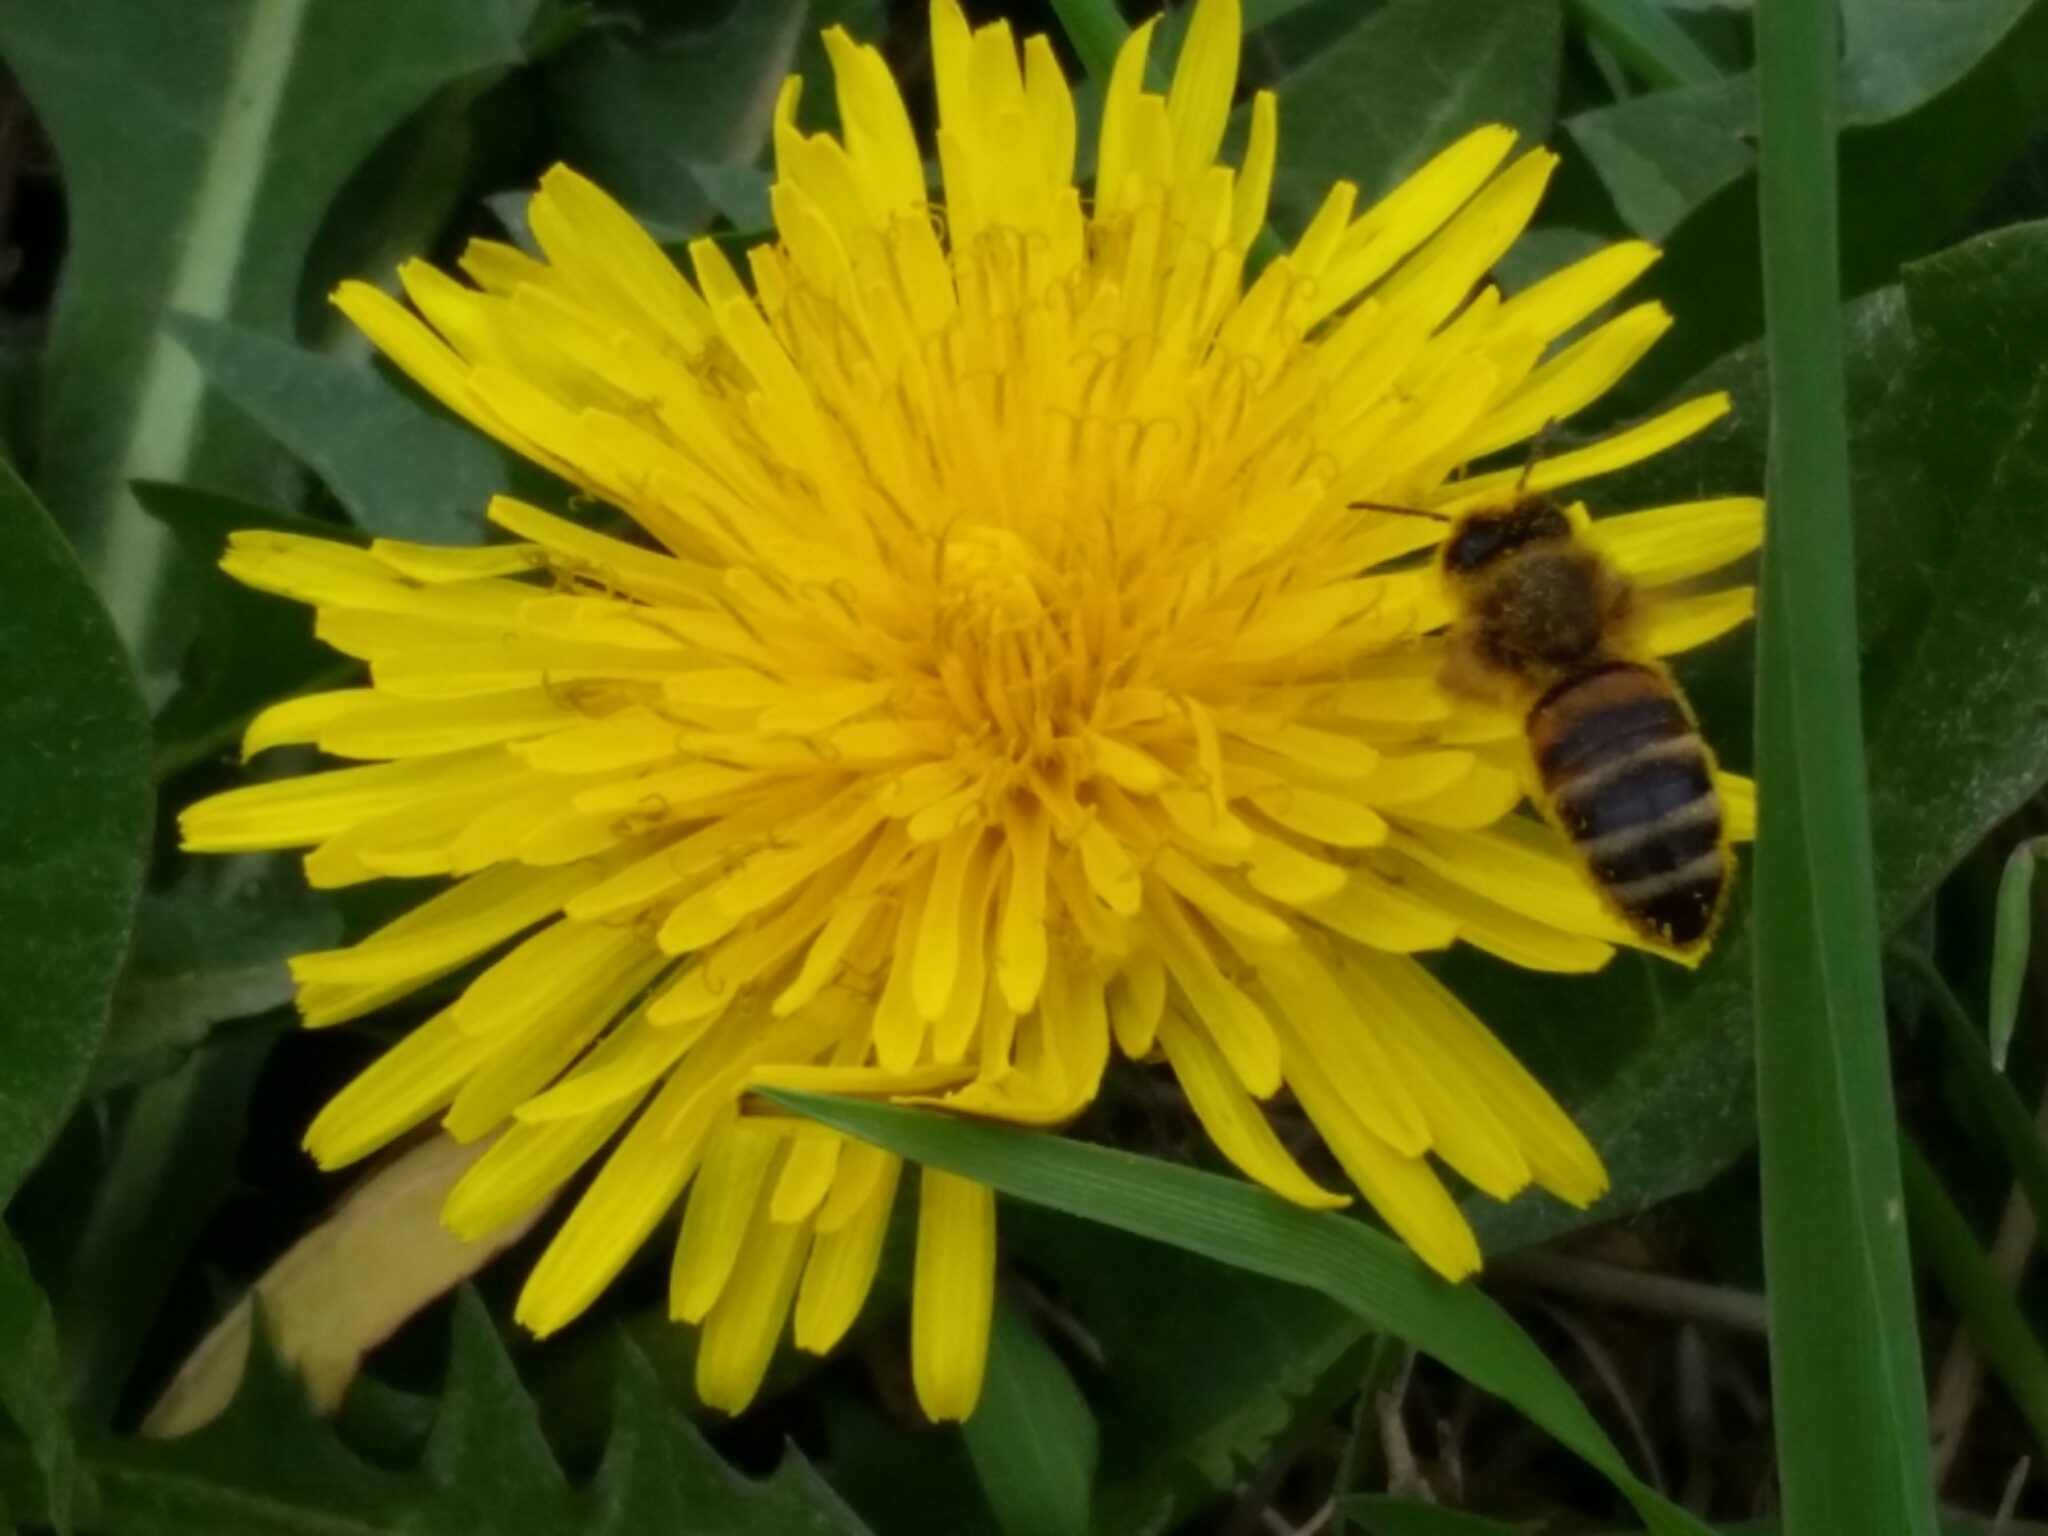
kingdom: Animalia
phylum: Arthropoda
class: Insecta
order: Hymenoptera
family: Apidae
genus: Apis
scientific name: Apis mellifera
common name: Honey bee
